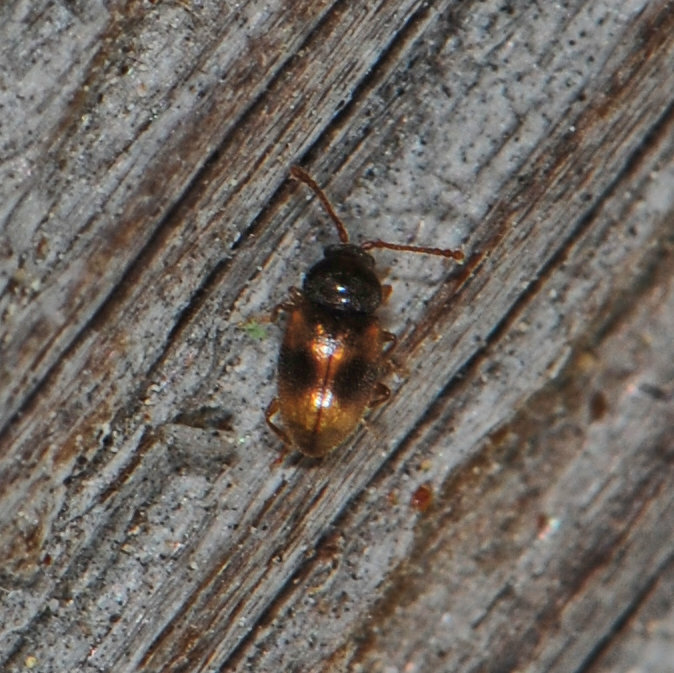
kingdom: Animalia
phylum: Arthropoda
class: Insecta
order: Coleoptera
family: Cryptophagidae
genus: Atomaria
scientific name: Atomaria ephippiata
